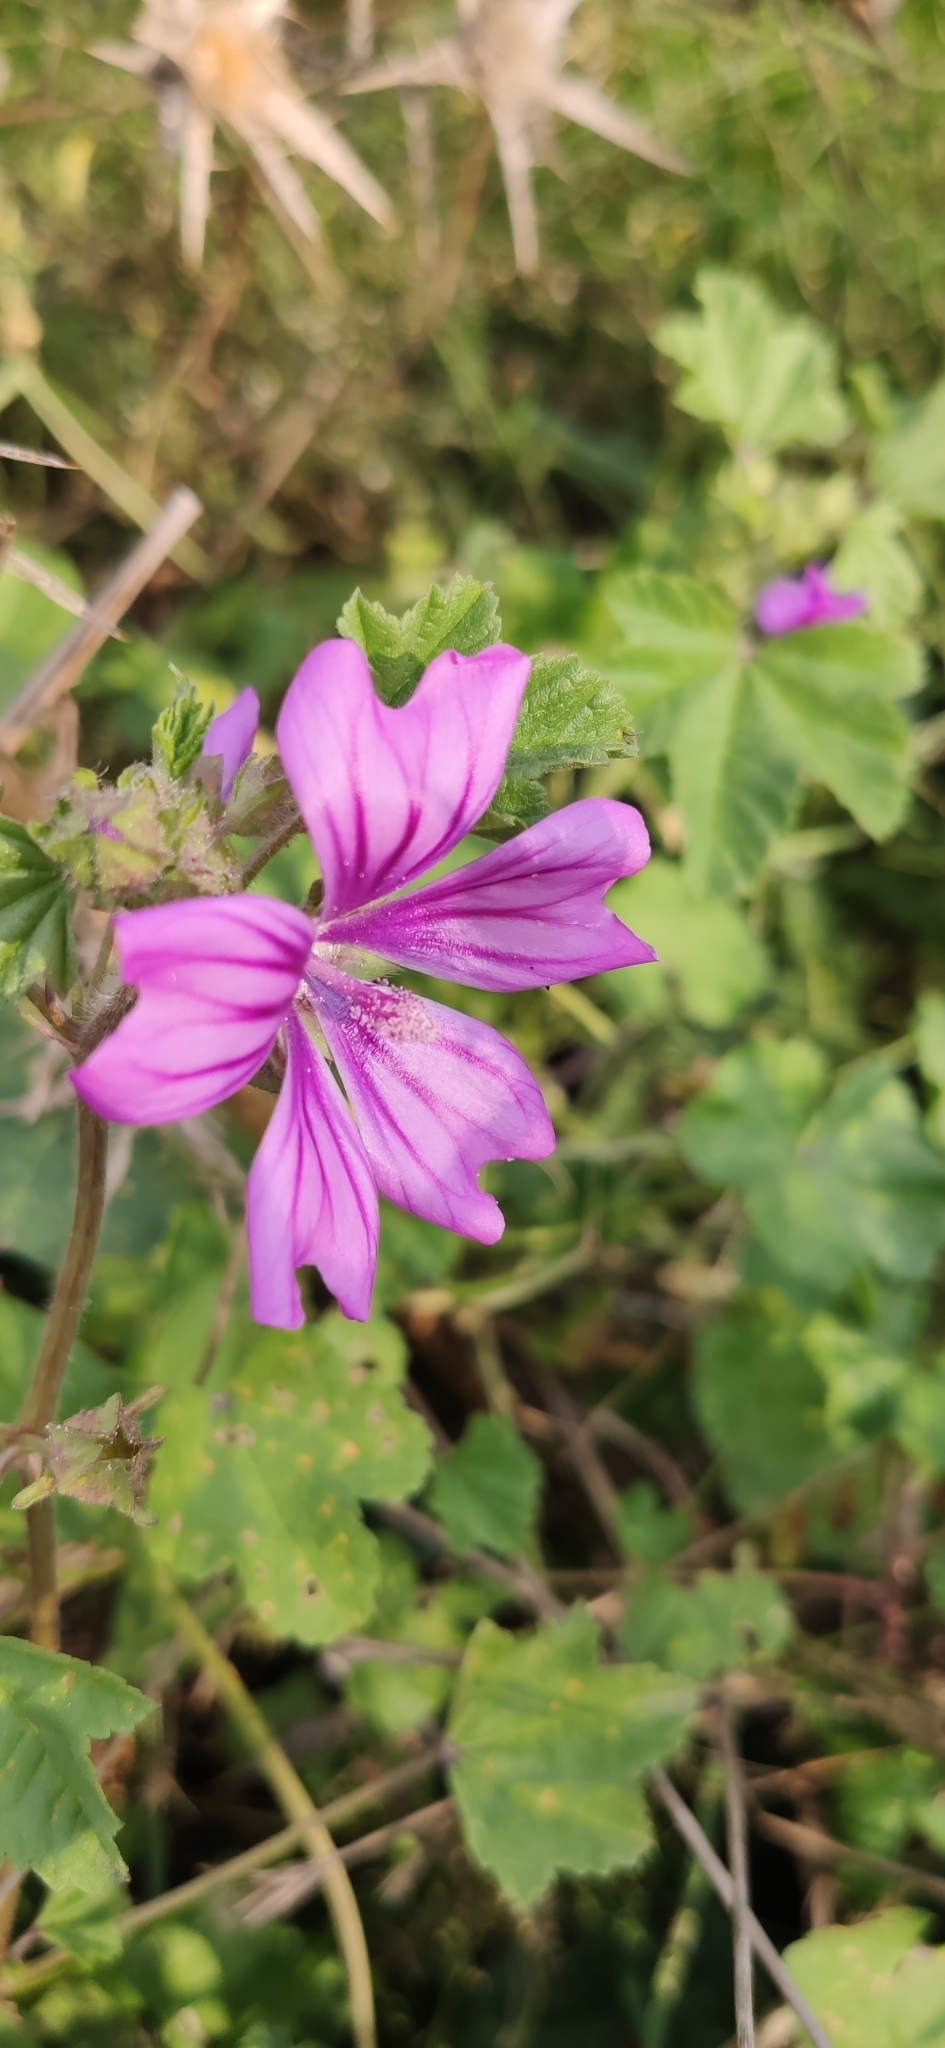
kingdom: Plantae
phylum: Tracheophyta
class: Magnoliopsida
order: Malvales
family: Malvaceae
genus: Malva
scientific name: Malva sylvestris
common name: Common mallow
